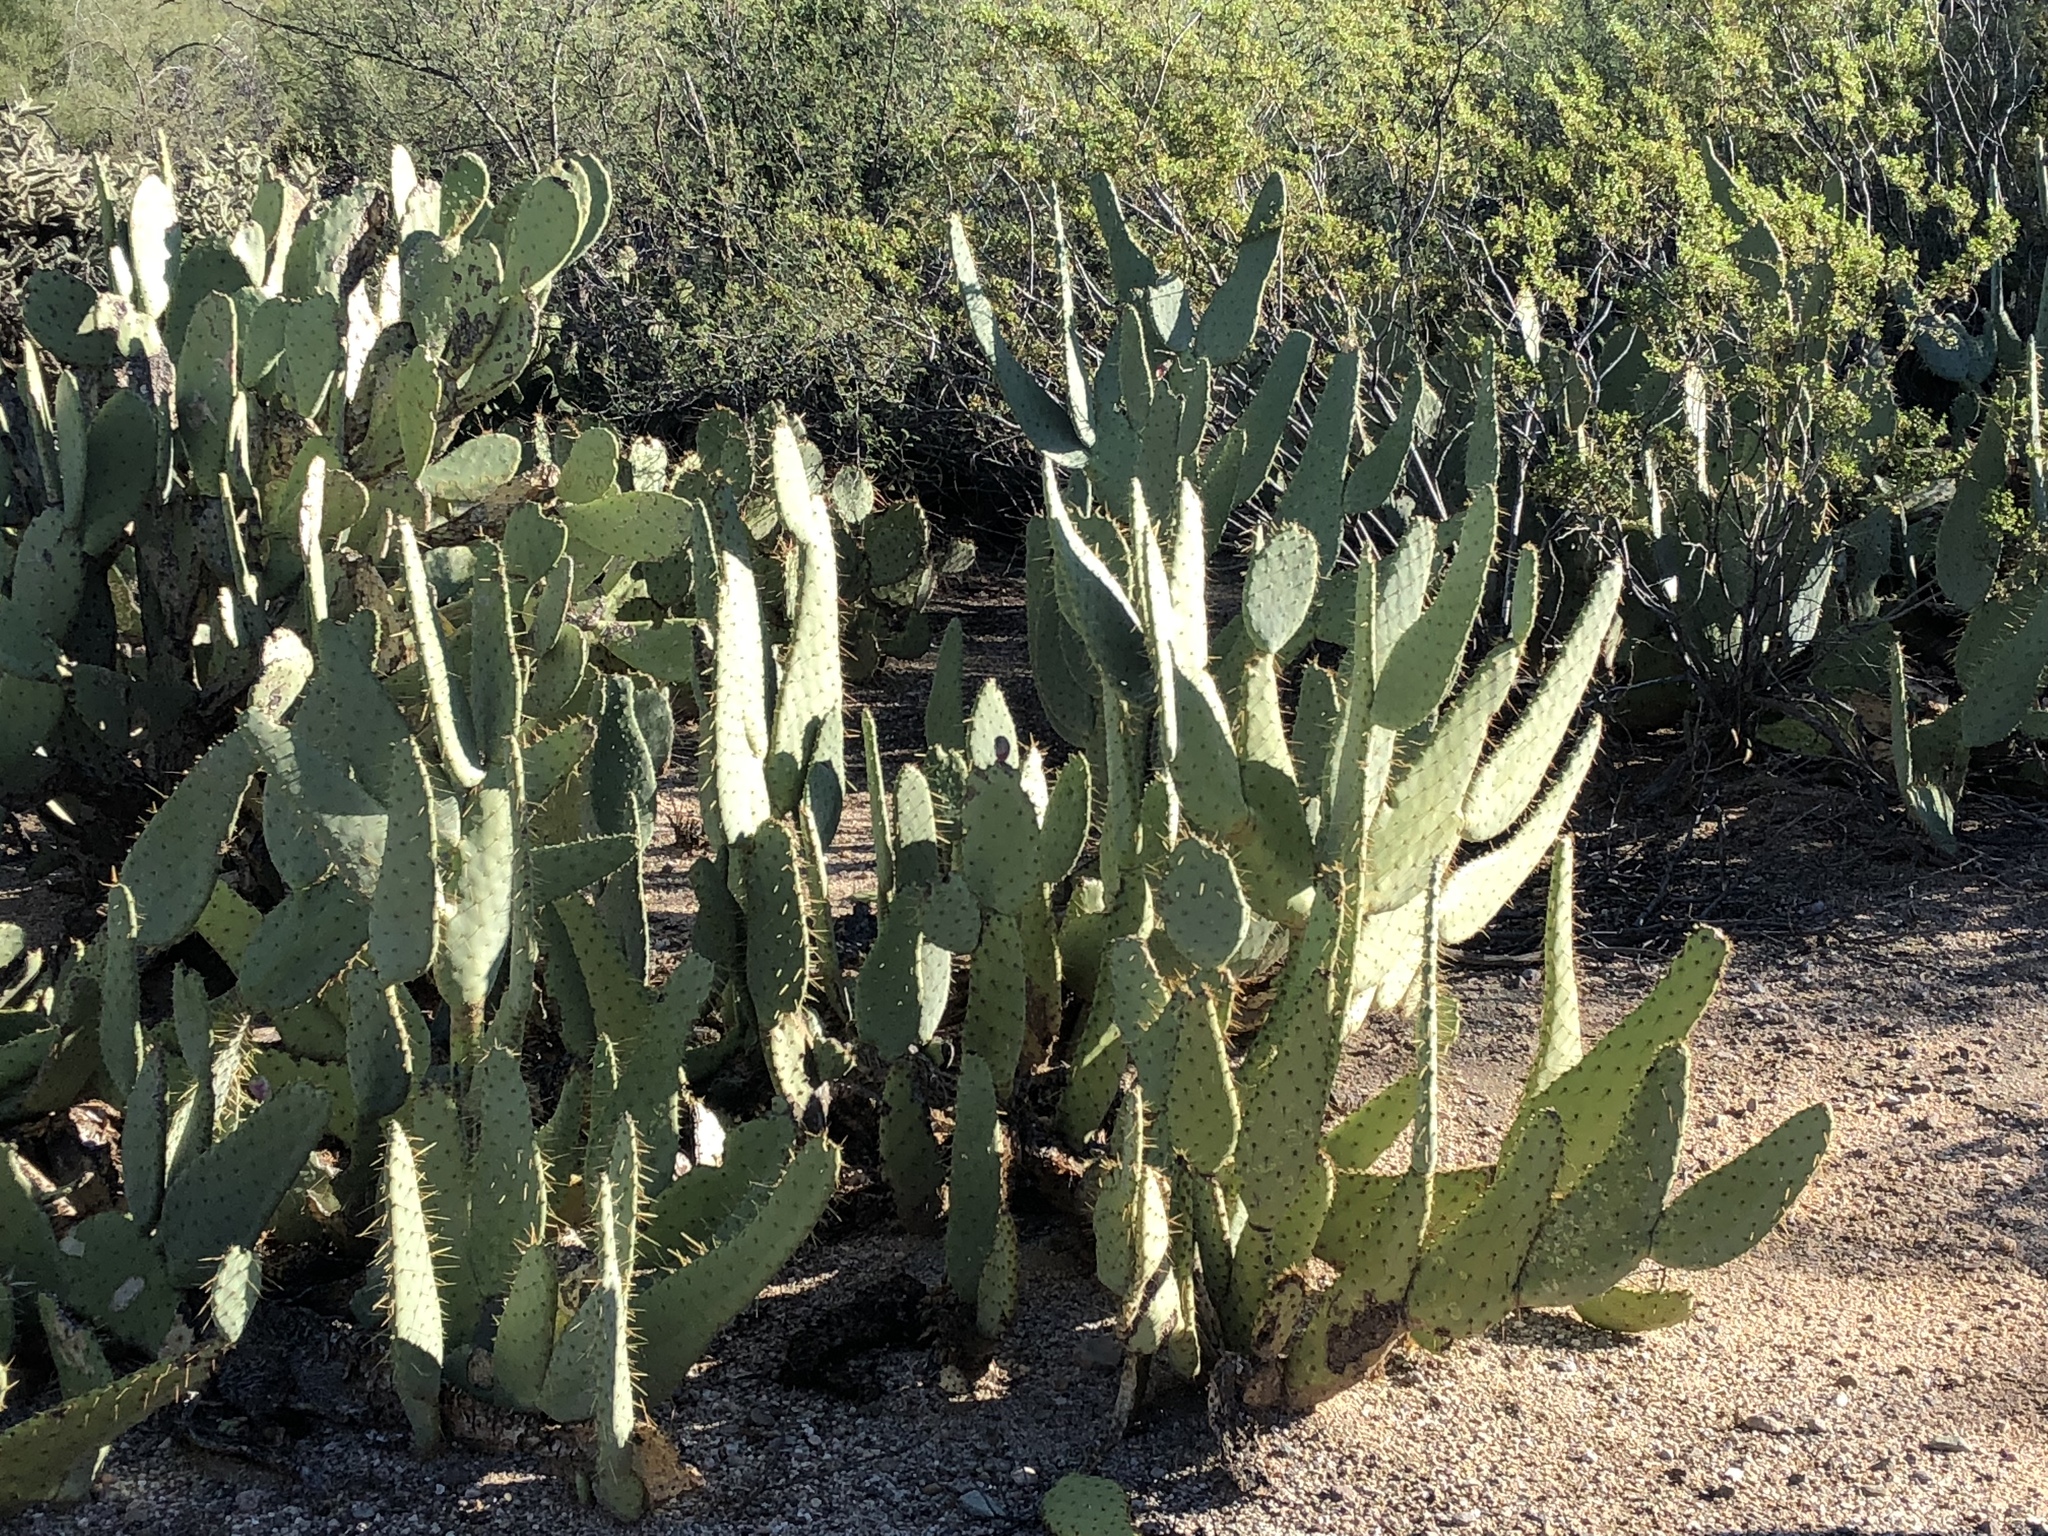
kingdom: Plantae
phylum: Tracheophyta
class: Magnoliopsida
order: Caryophyllales
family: Cactaceae
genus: Opuntia
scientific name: Opuntia engelmannii
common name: Cactus-apple
